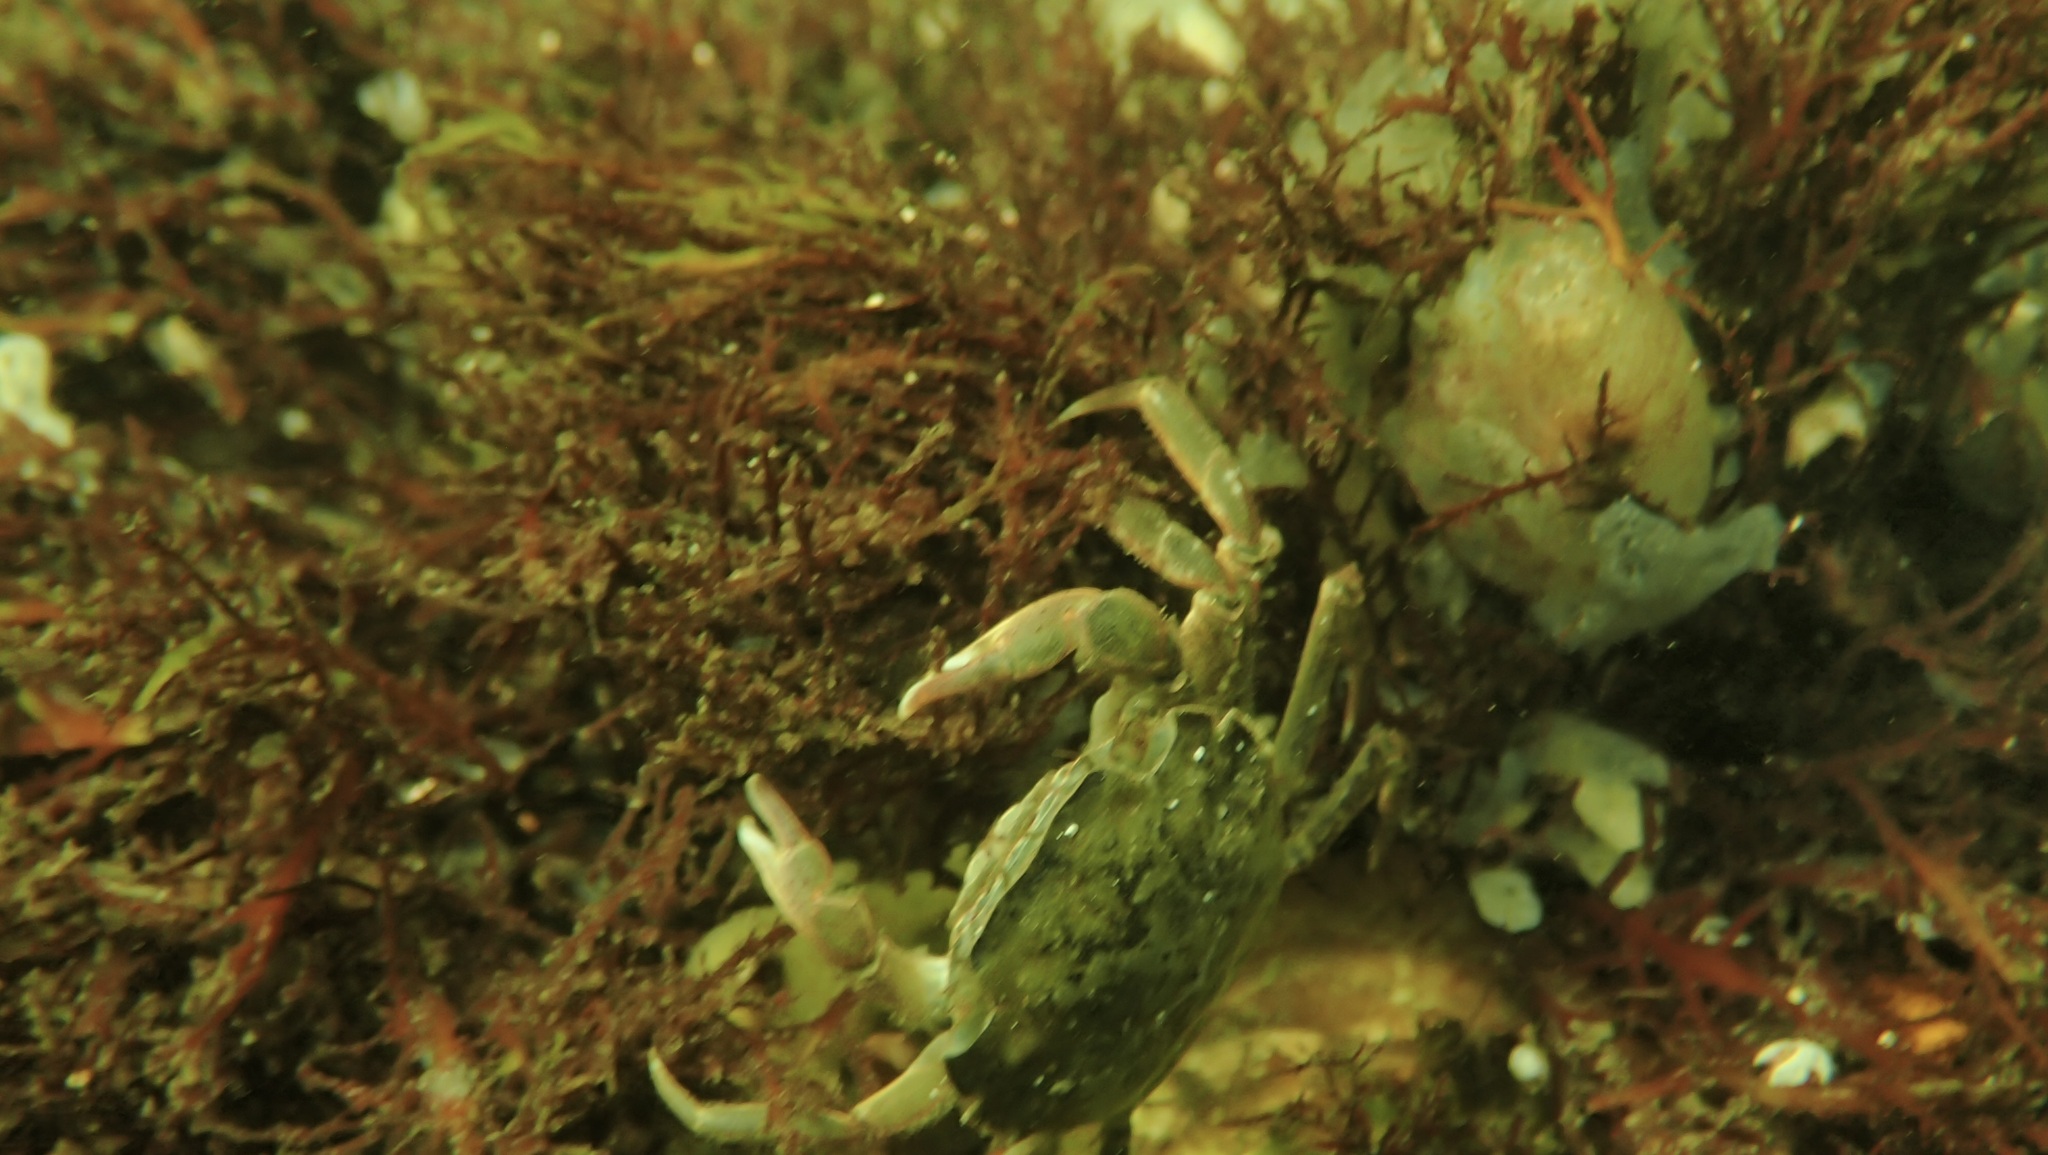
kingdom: Animalia
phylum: Arthropoda
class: Malacostraca
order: Decapoda
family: Carcinidae
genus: Carcinus
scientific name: Carcinus maenas
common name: European green crab
